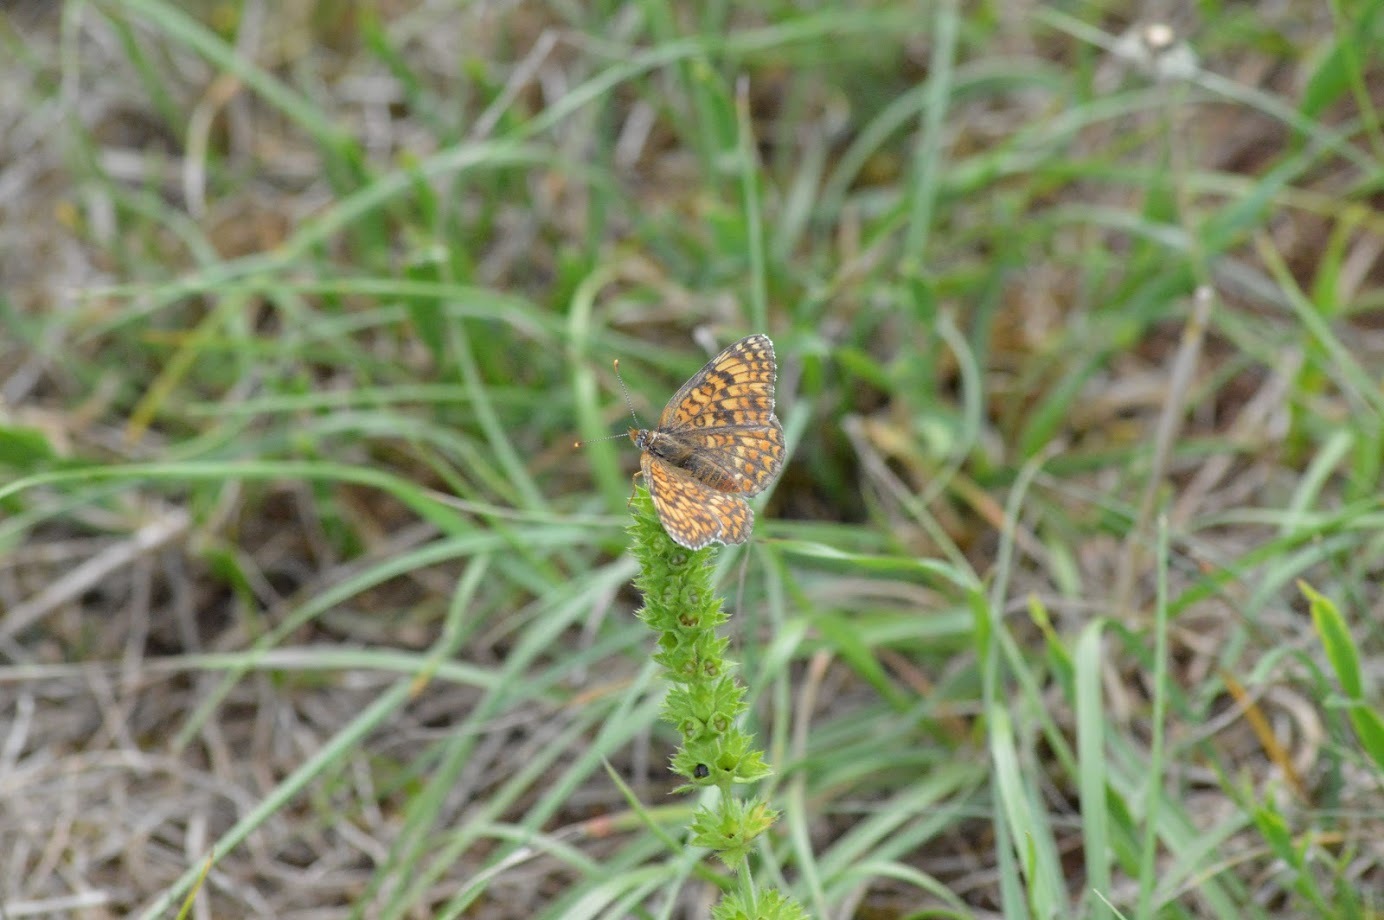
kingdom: Animalia
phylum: Arthropoda
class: Insecta
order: Lepidoptera
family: Nymphalidae
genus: Melitaea
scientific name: Melitaea phoebe
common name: Knapweed fritillary
